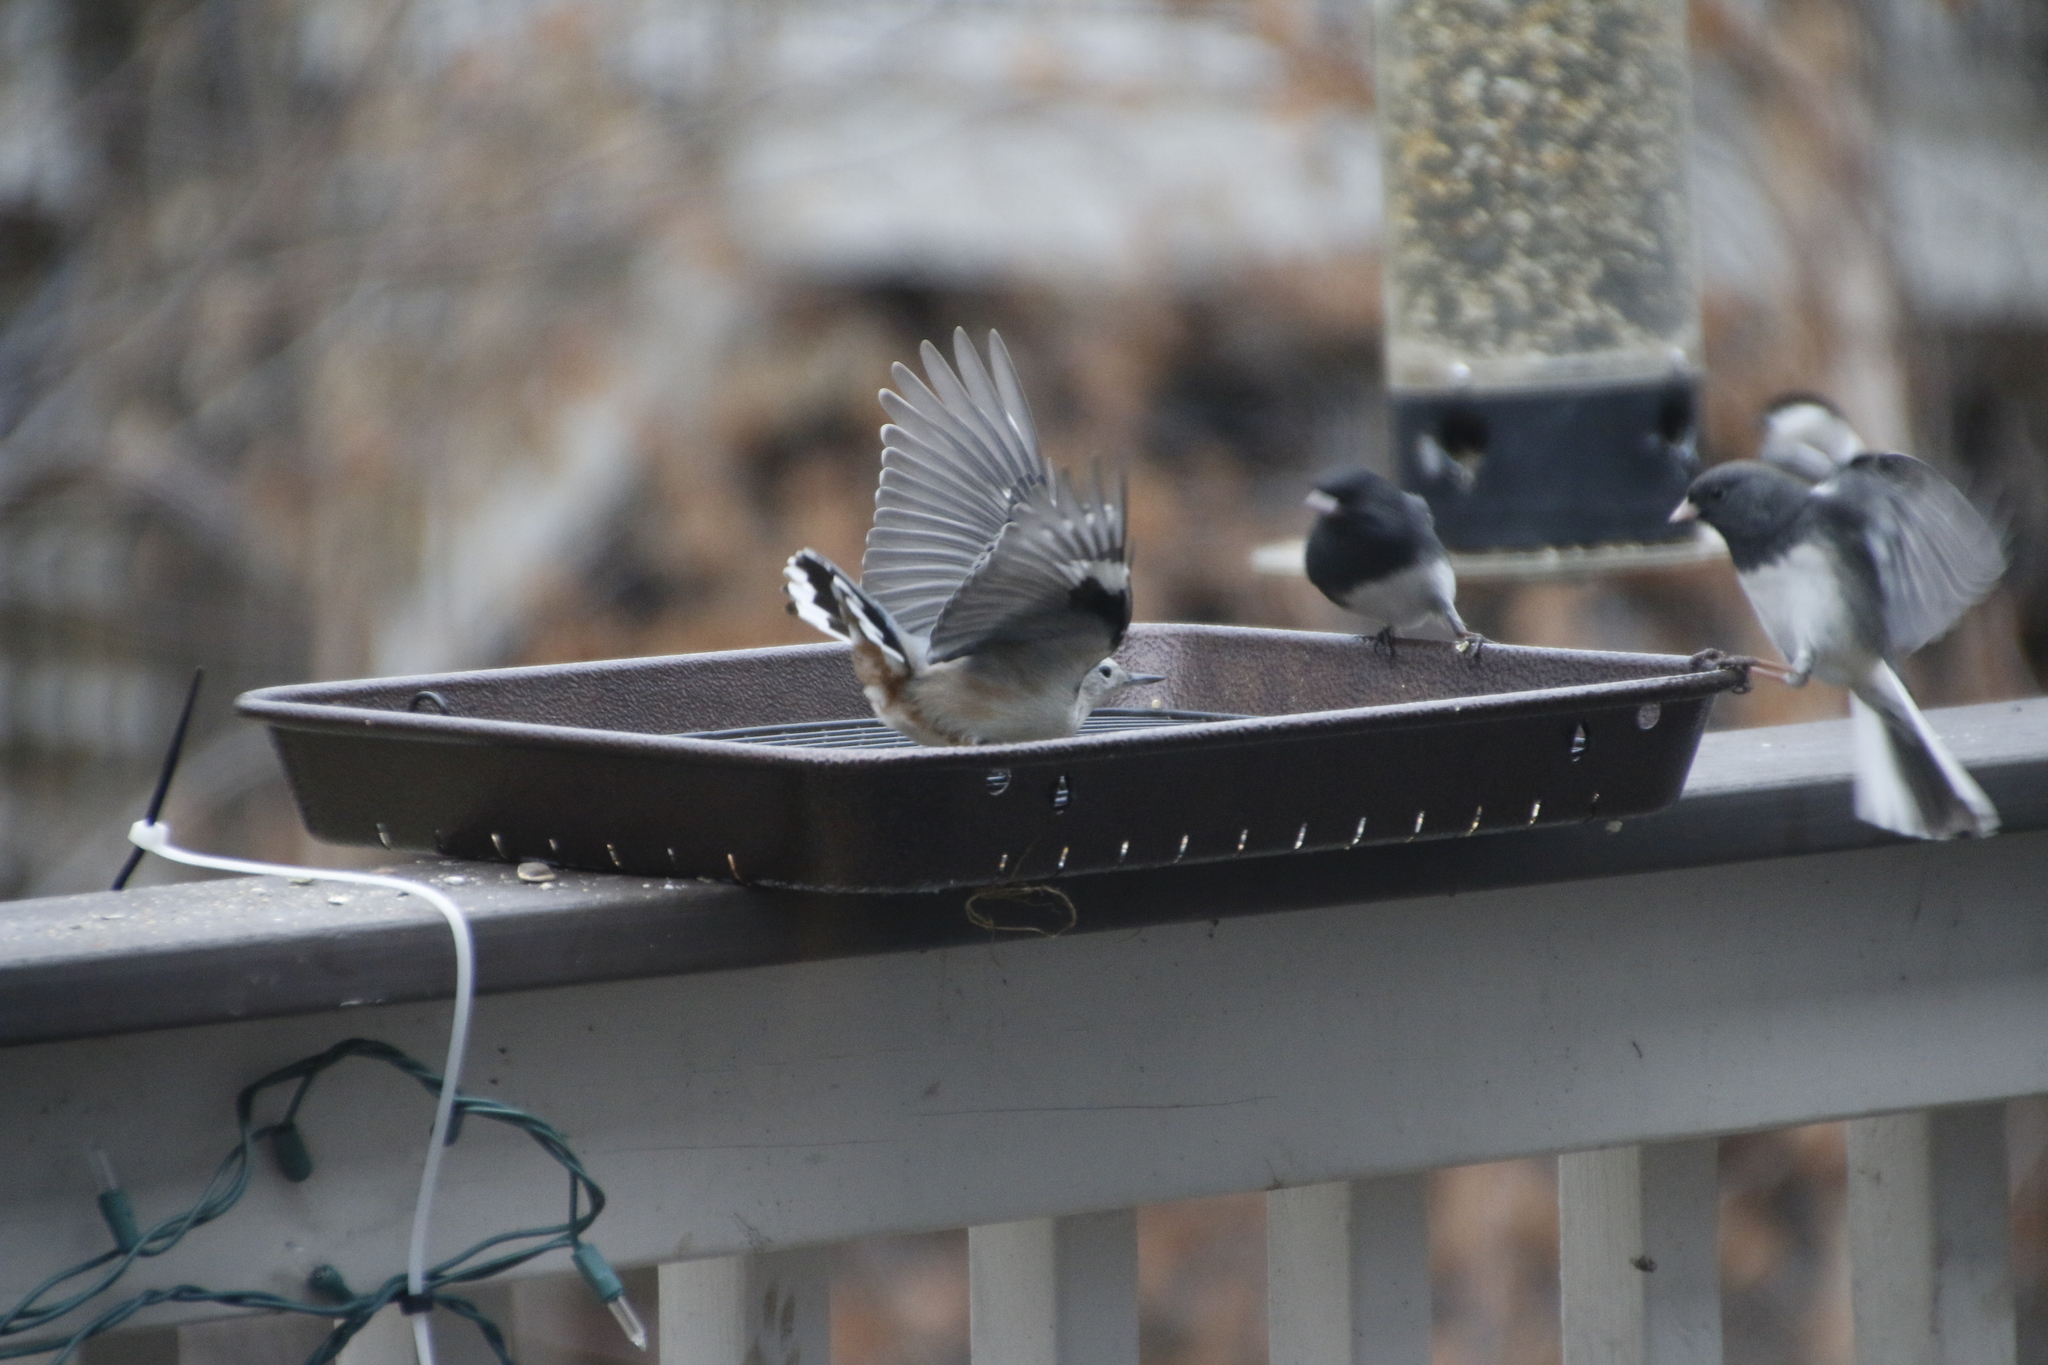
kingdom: Animalia
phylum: Chordata
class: Aves
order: Passeriformes
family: Sittidae
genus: Sitta
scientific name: Sitta carolinensis
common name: White-breasted nuthatch
